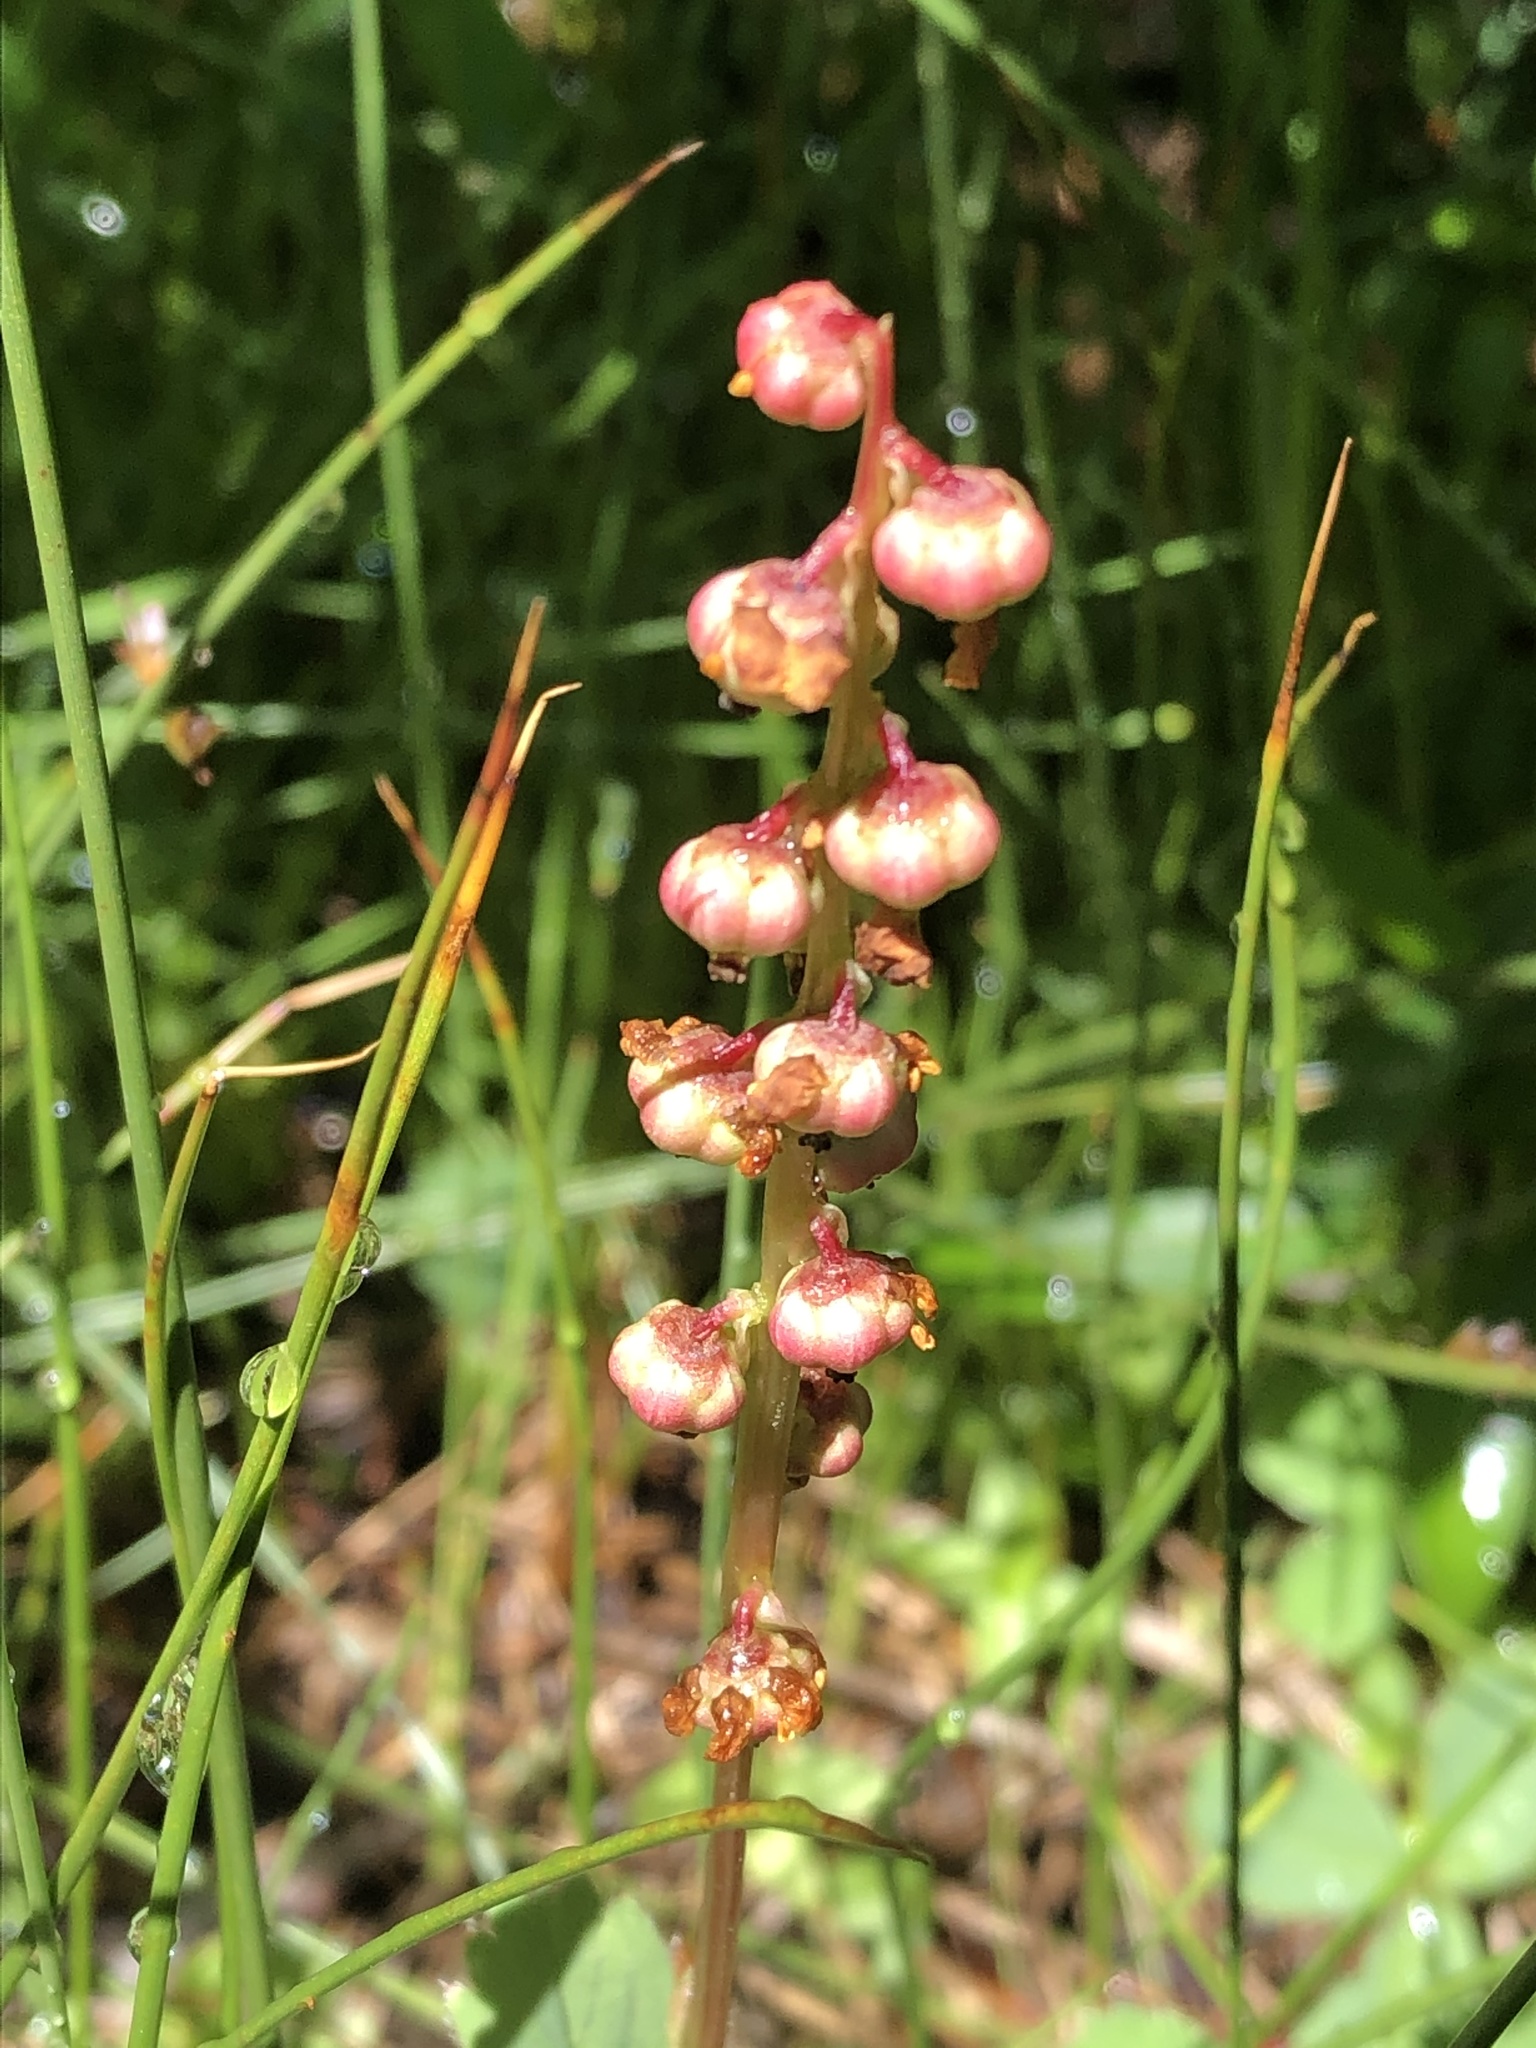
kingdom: Plantae
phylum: Tracheophyta
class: Magnoliopsida
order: Ericales
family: Ericaceae
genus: Pyrola
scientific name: Pyrola minor
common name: Common wintergreen
